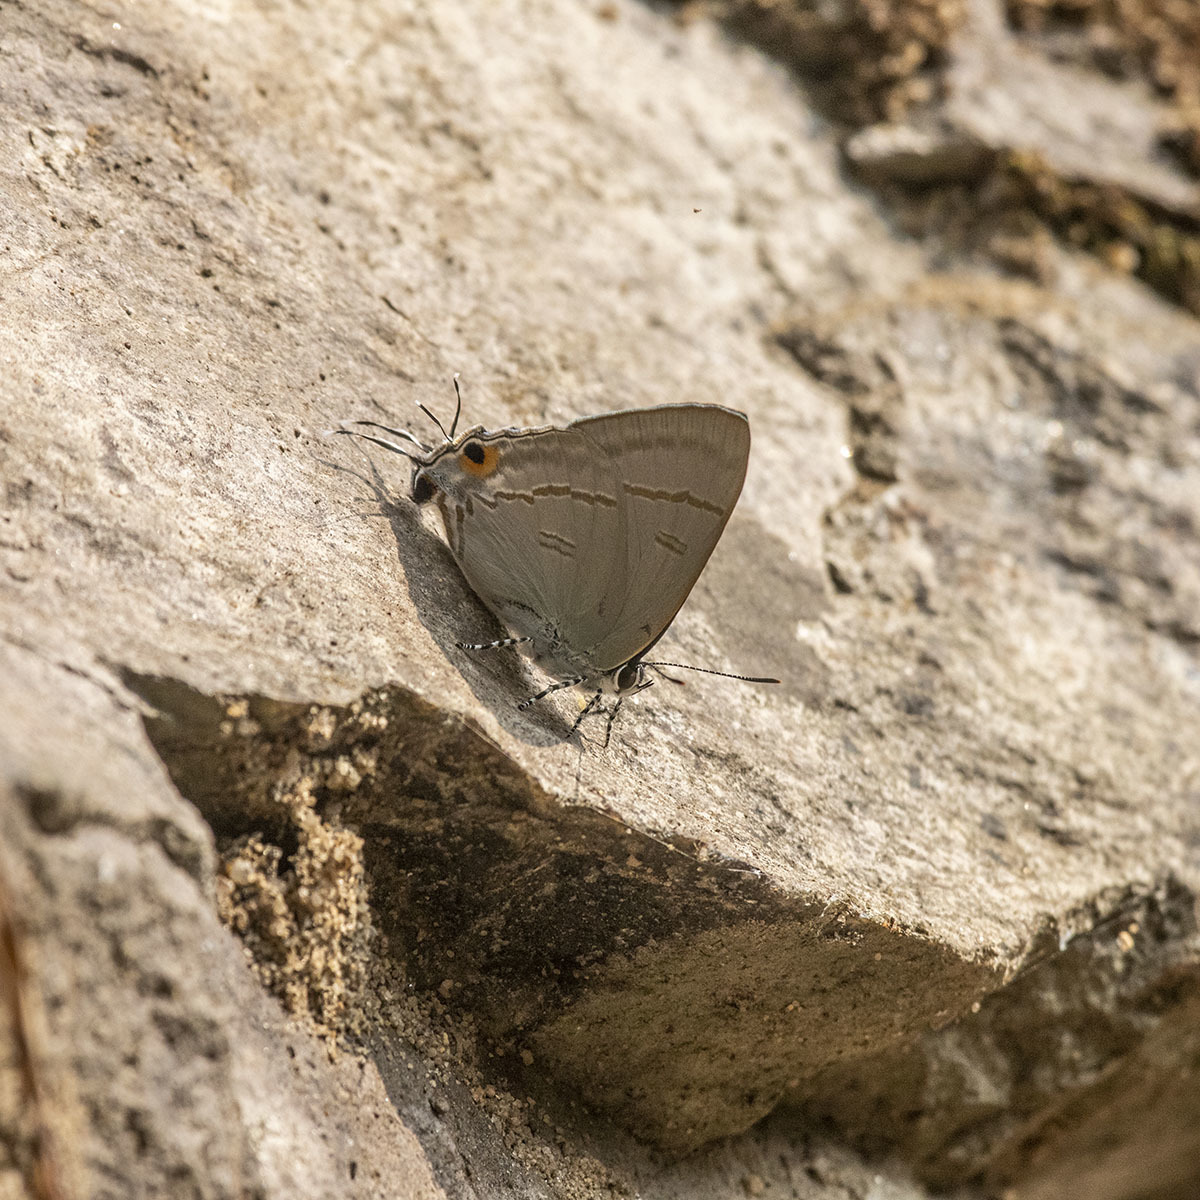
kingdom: Animalia
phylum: Arthropoda
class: Insecta
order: Lepidoptera
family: Lycaenidae
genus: Hypolycaena
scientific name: Hypolycaena erylus
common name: Common tit
